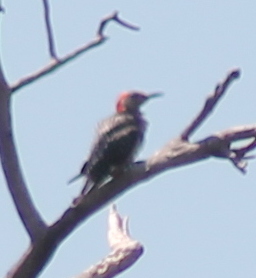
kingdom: Animalia
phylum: Chordata
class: Aves
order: Piciformes
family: Picidae
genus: Melanerpes
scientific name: Melanerpes carolinus
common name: Red-bellied woodpecker
